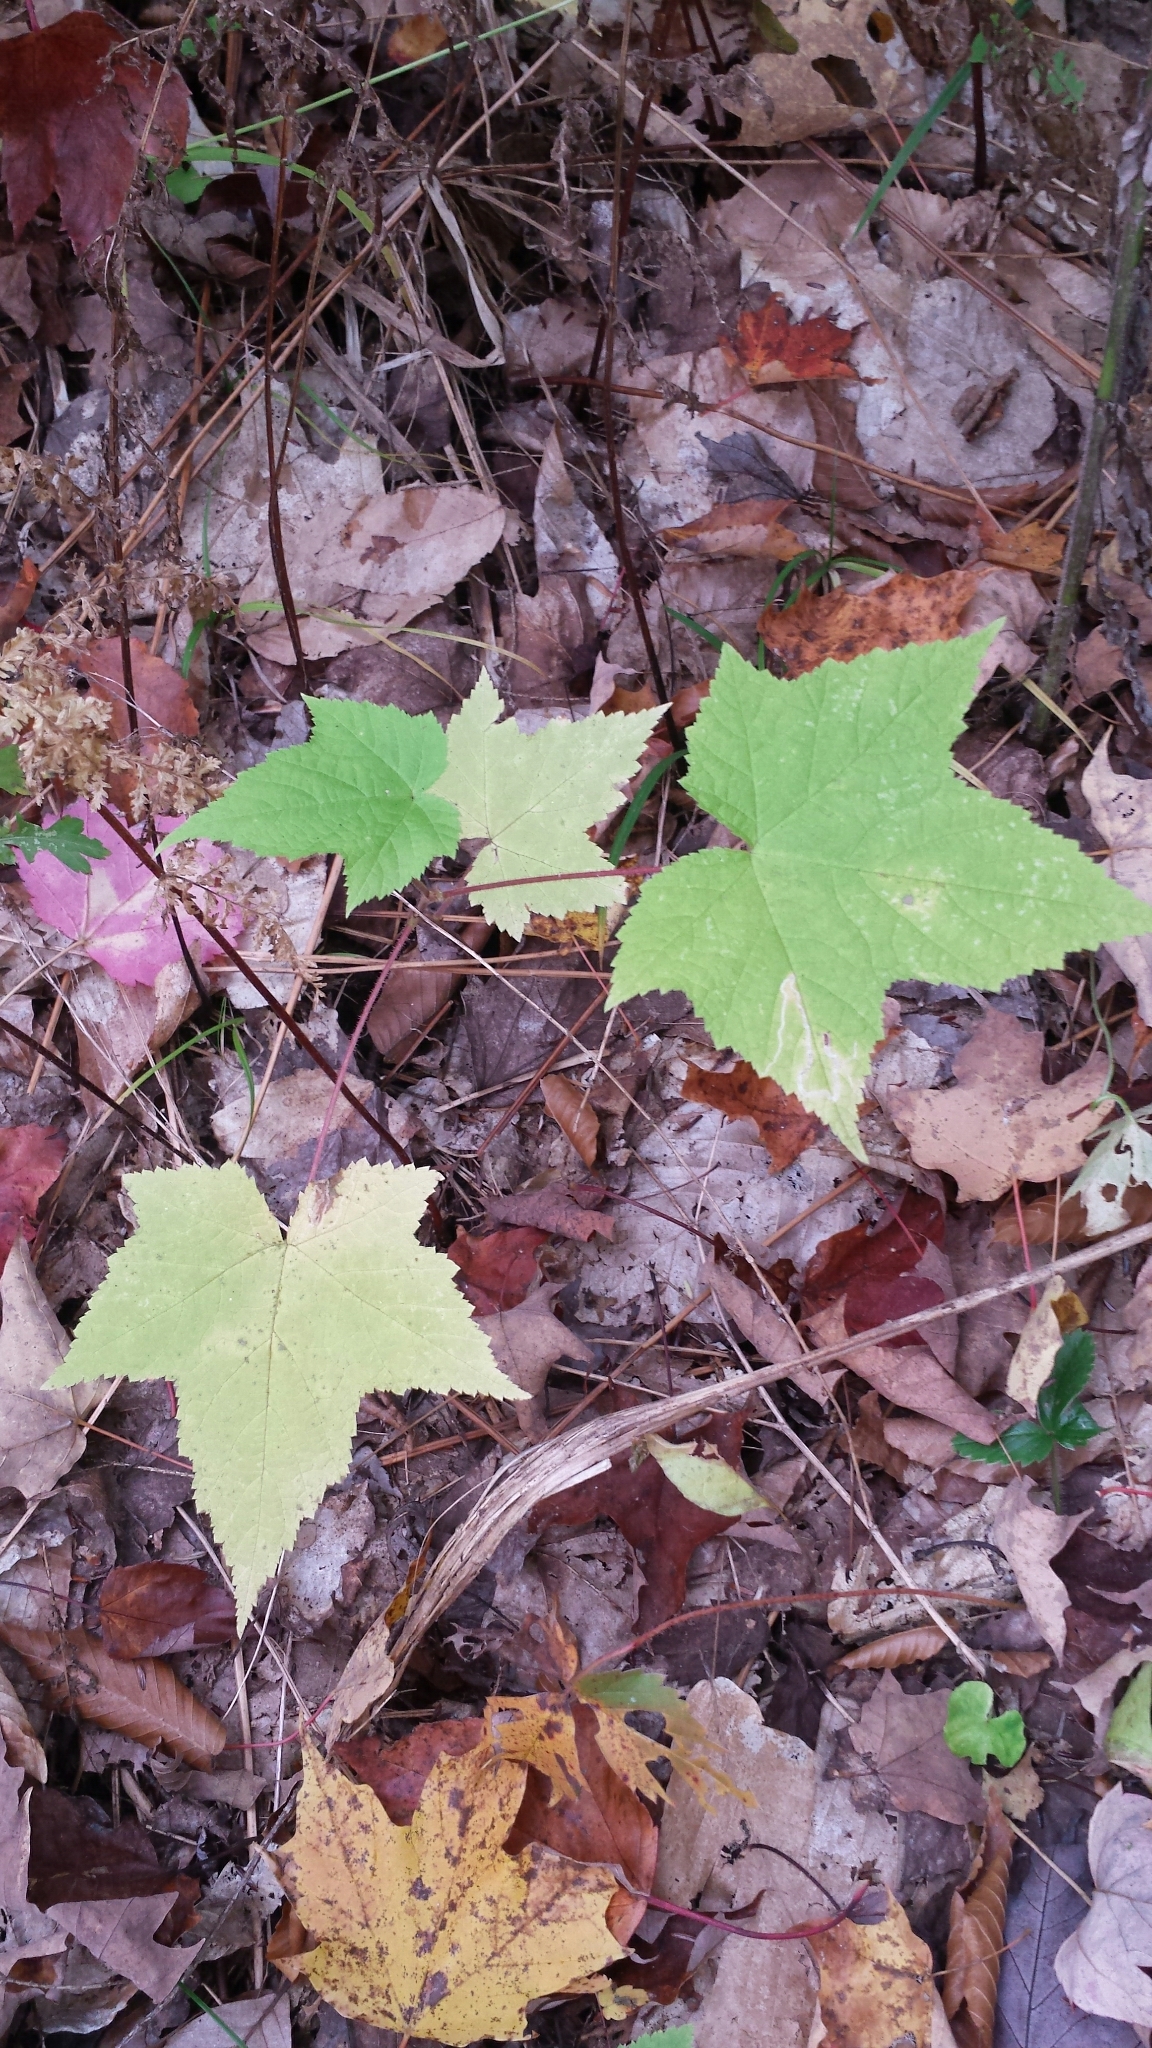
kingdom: Plantae
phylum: Tracheophyta
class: Magnoliopsida
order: Rosales
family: Rosaceae
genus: Rubus
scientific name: Rubus odoratus
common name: Purple-flowered raspberry
